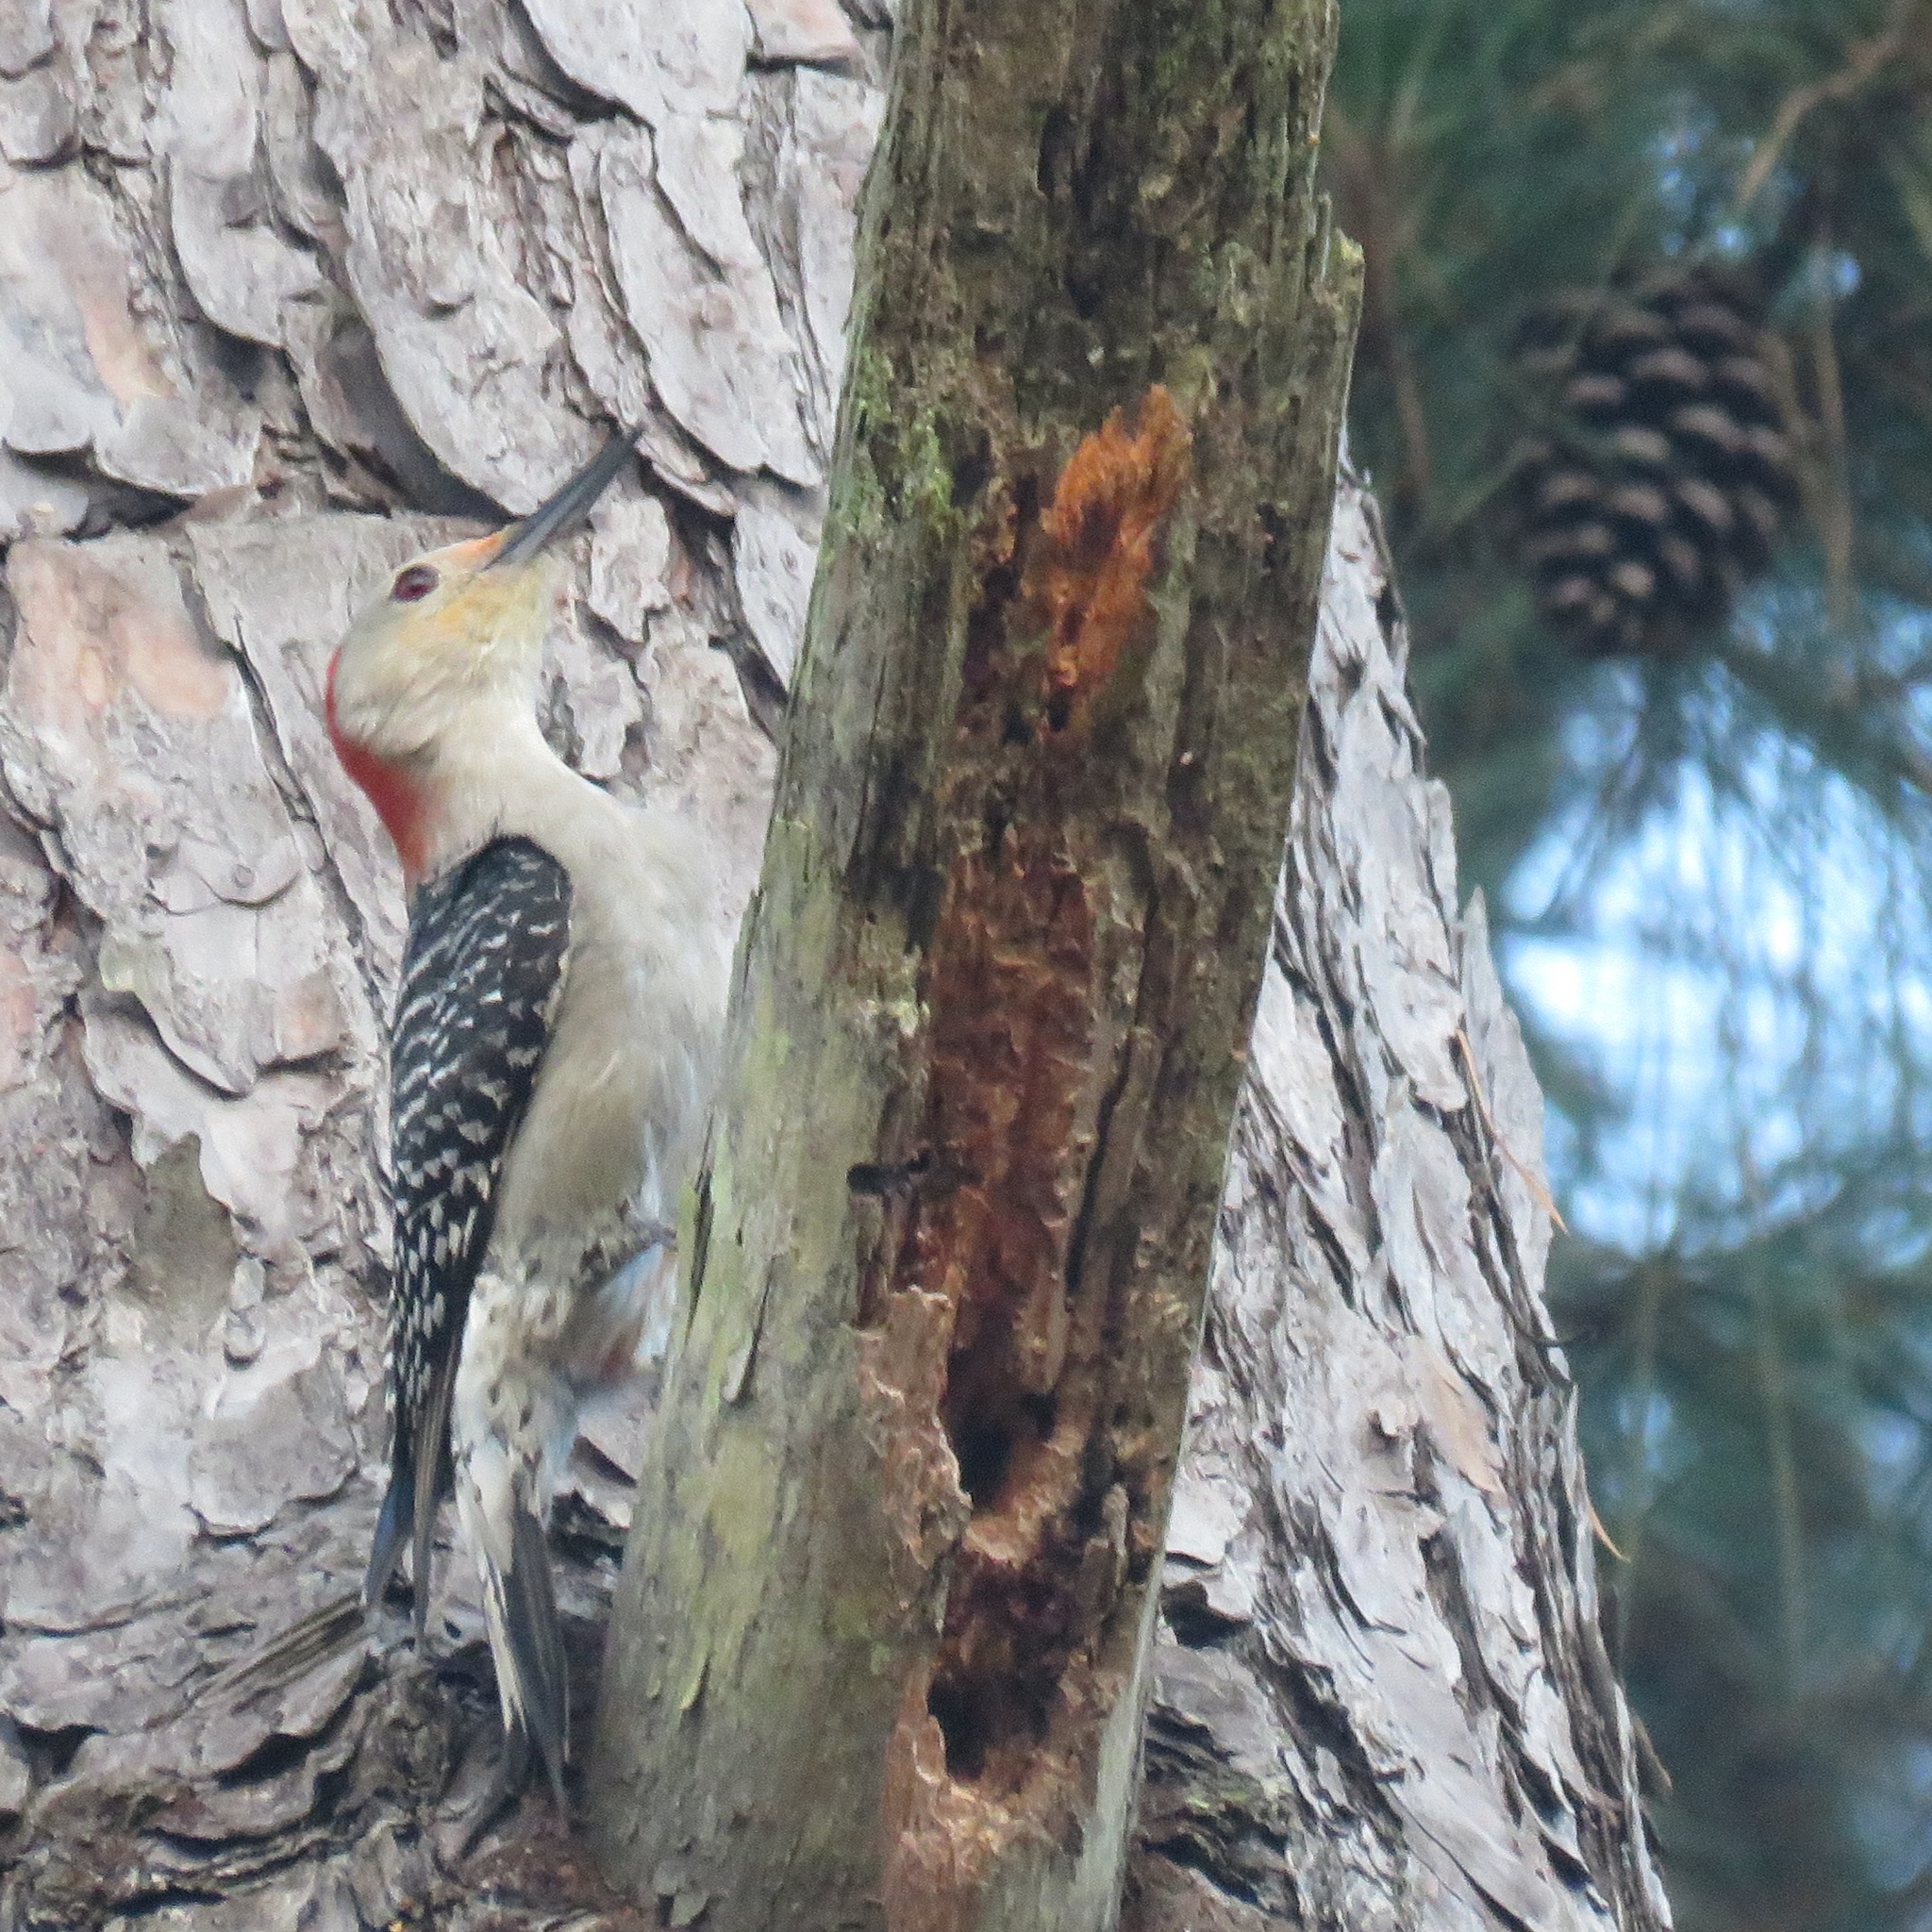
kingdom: Animalia
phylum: Chordata
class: Aves
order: Piciformes
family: Picidae
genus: Melanerpes
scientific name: Melanerpes carolinus
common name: Red-bellied woodpecker
